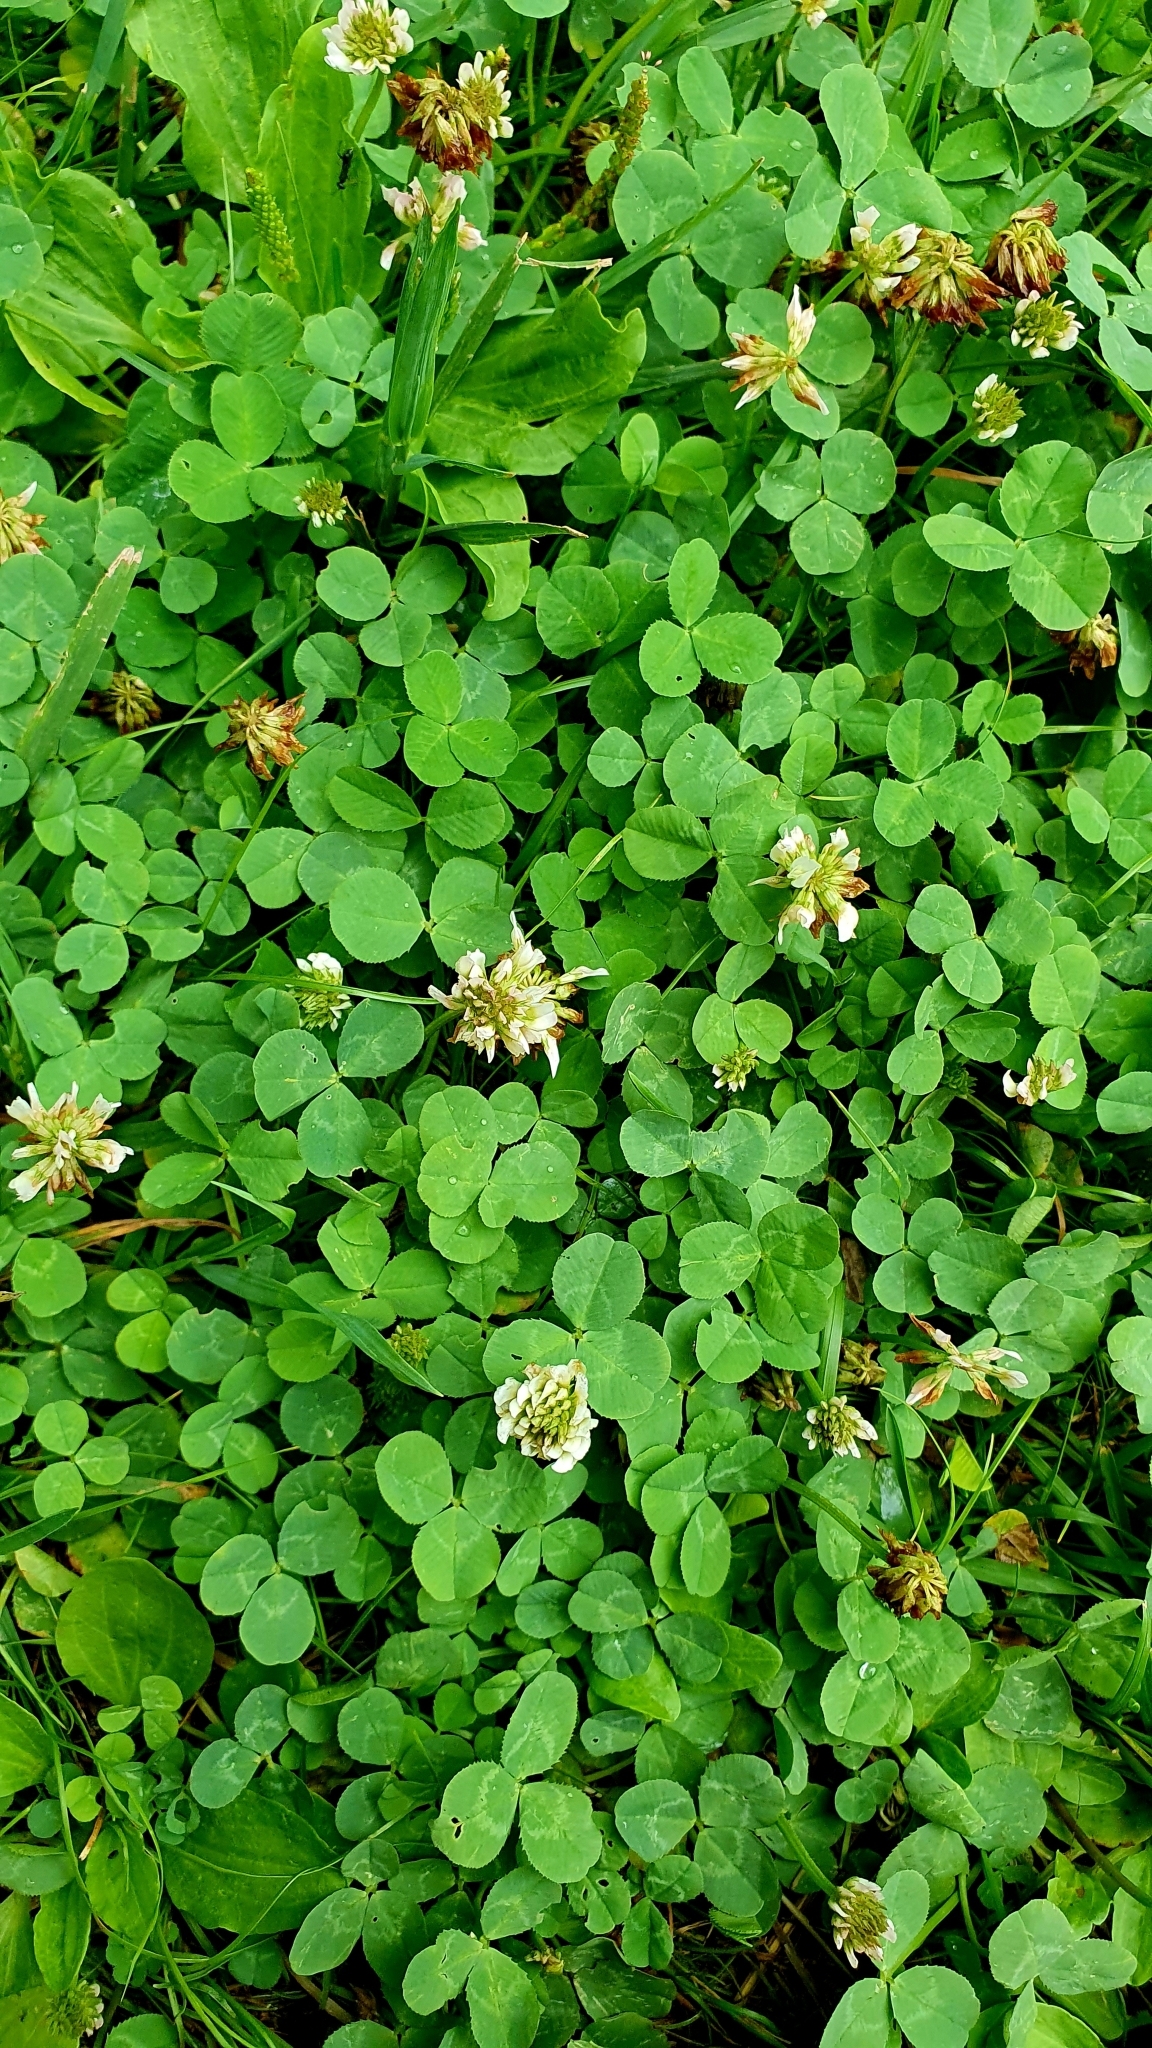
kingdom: Plantae
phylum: Tracheophyta
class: Magnoliopsida
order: Fabales
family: Fabaceae
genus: Trifolium
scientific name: Trifolium repens
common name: White clover
